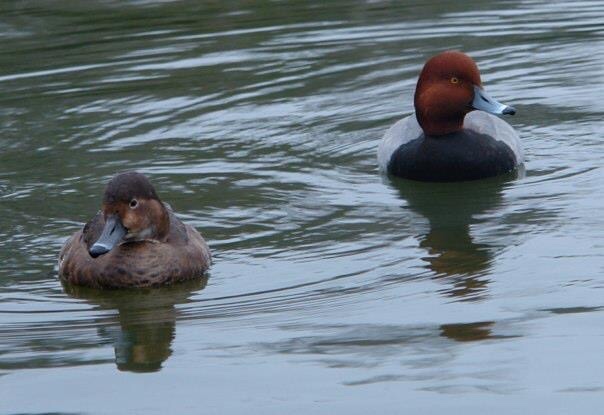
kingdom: Animalia
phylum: Chordata
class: Aves
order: Anseriformes
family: Anatidae
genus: Aythya
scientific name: Aythya americana
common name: Redhead
